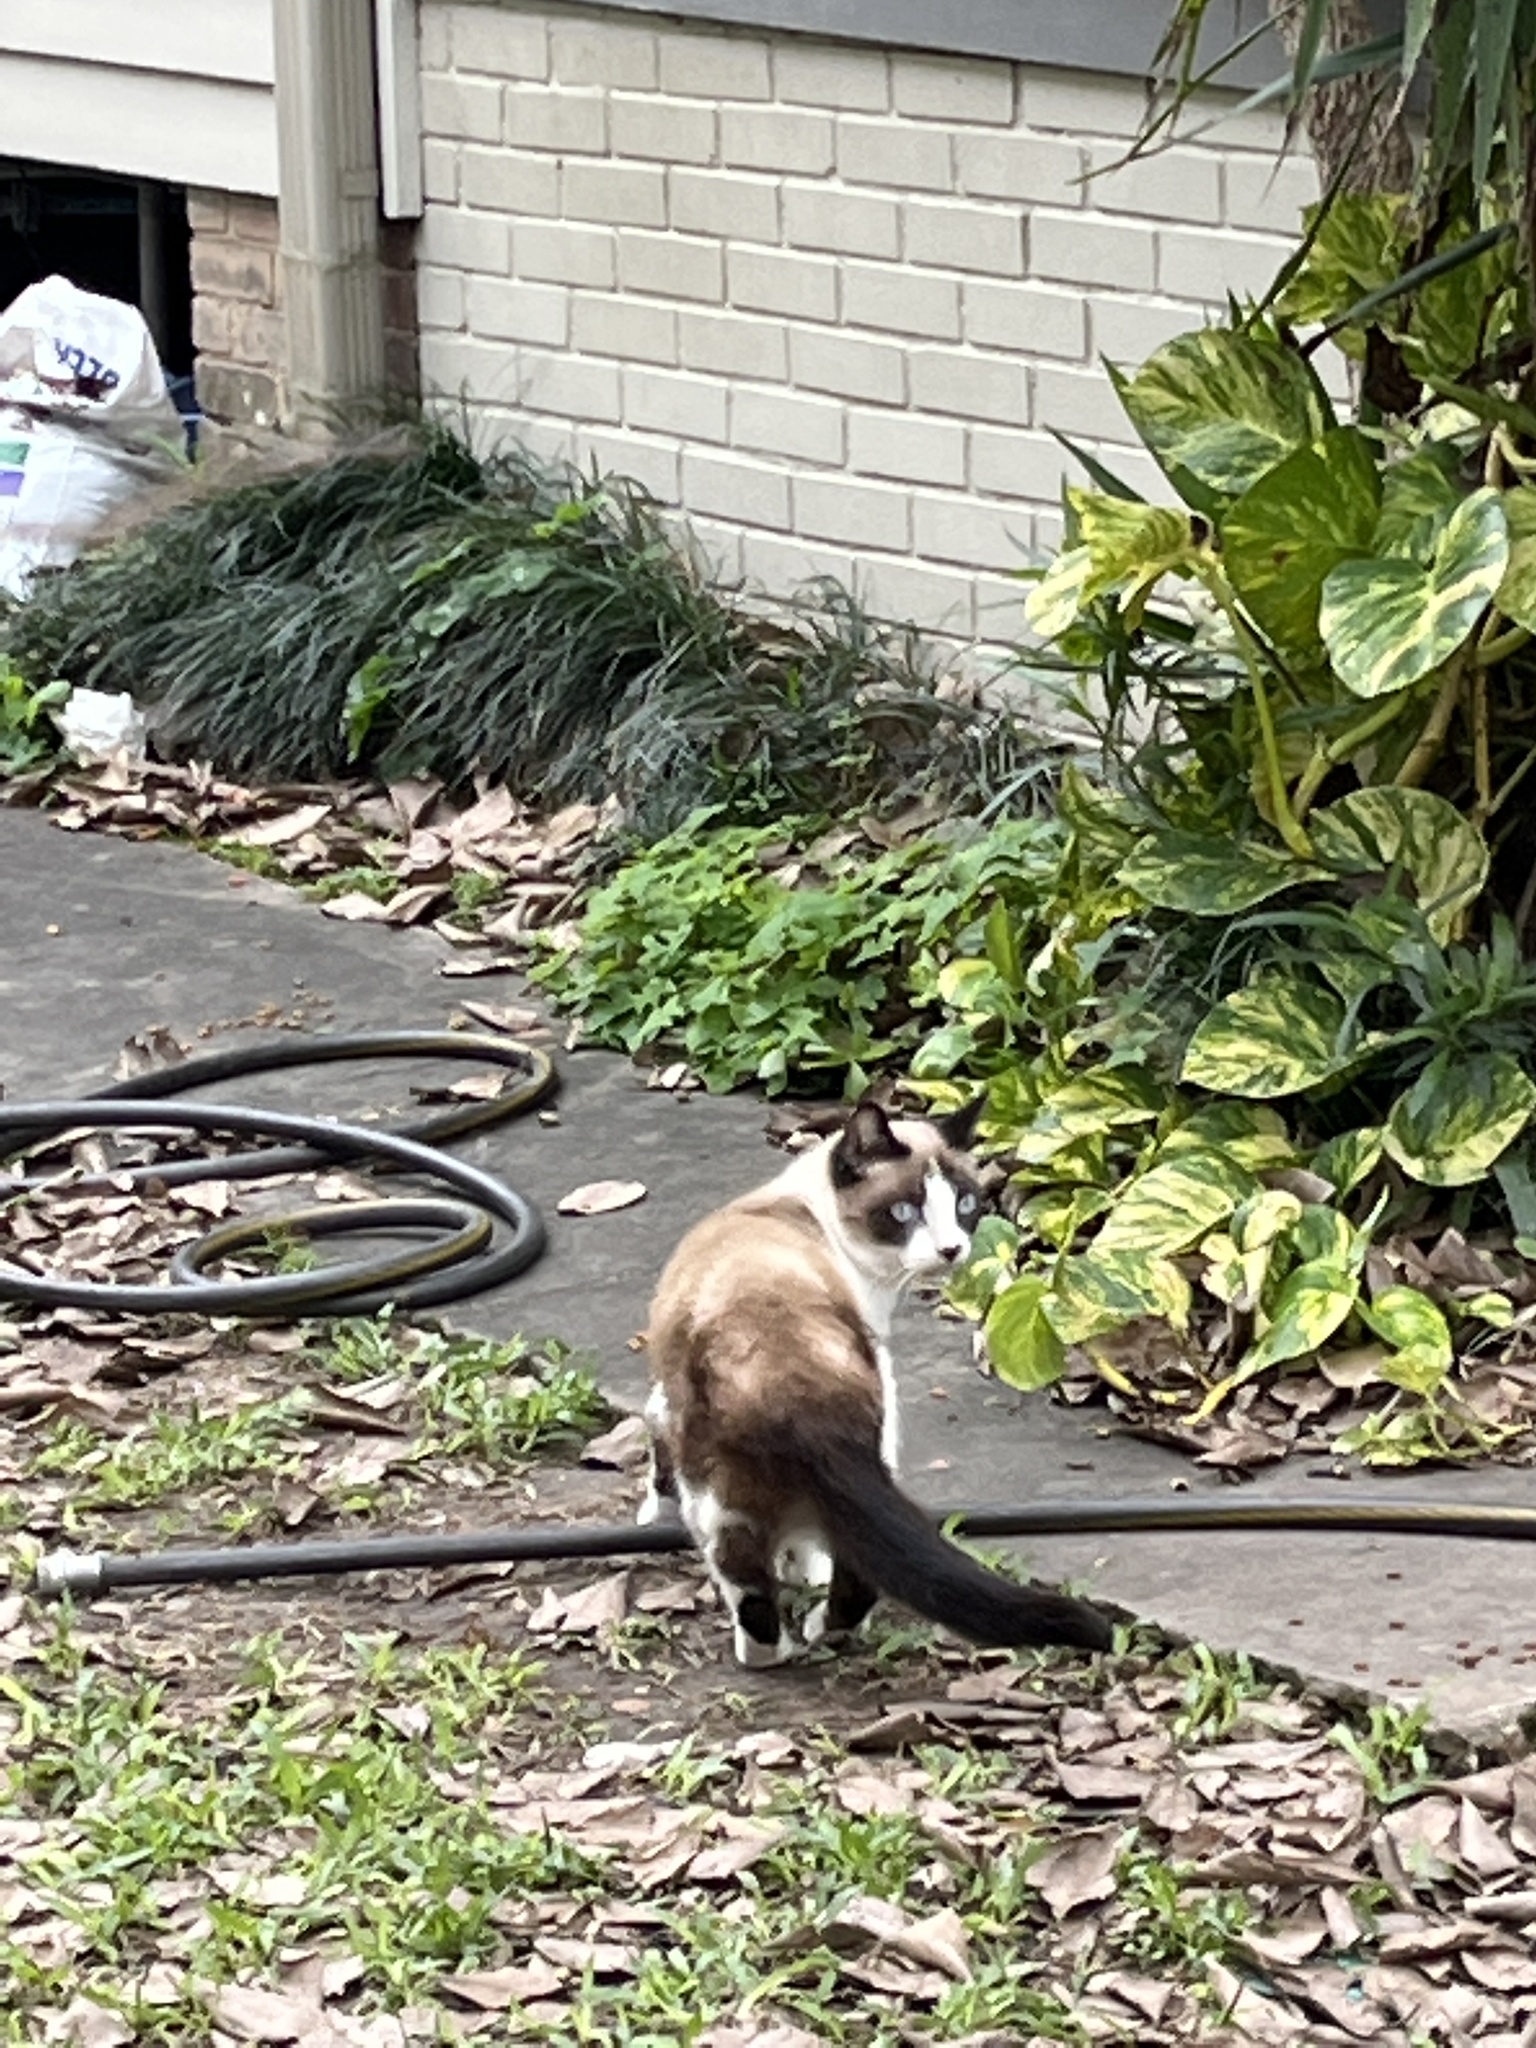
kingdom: Animalia
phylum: Chordata
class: Mammalia
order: Carnivora
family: Felidae
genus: Felis
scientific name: Felis catus
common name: Domestic cat
